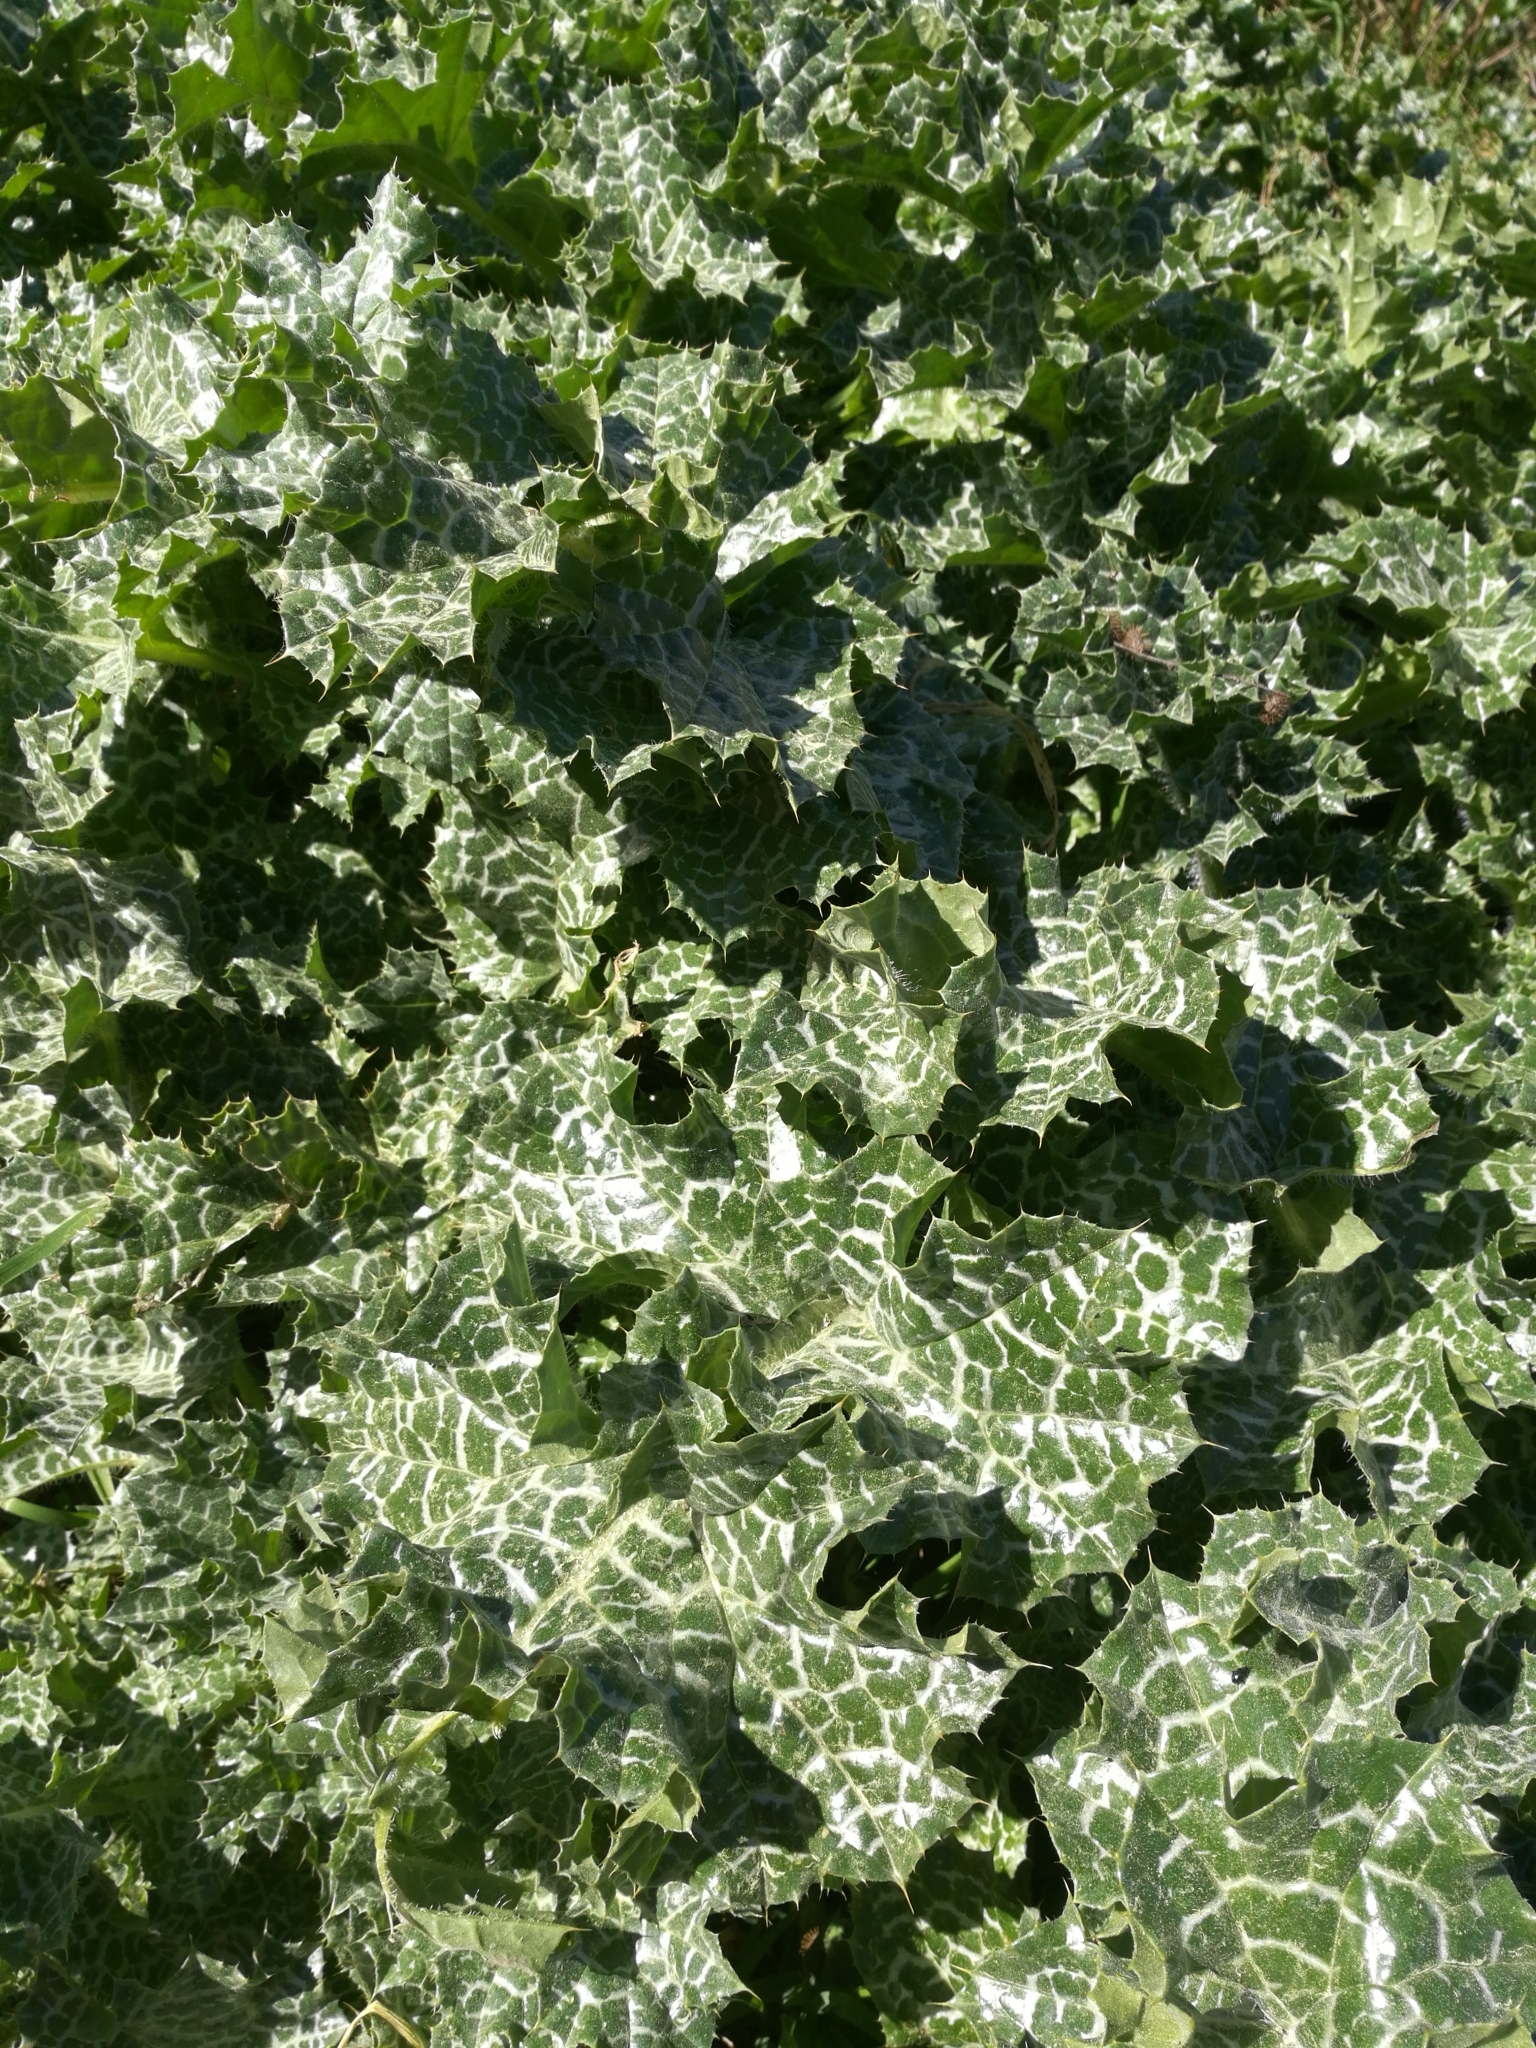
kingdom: Plantae
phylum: Tracheophyta
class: Magnoliopsida
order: Asterales
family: Asteraceae
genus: Silybum
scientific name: Silybum marianum
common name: Milk thistle
